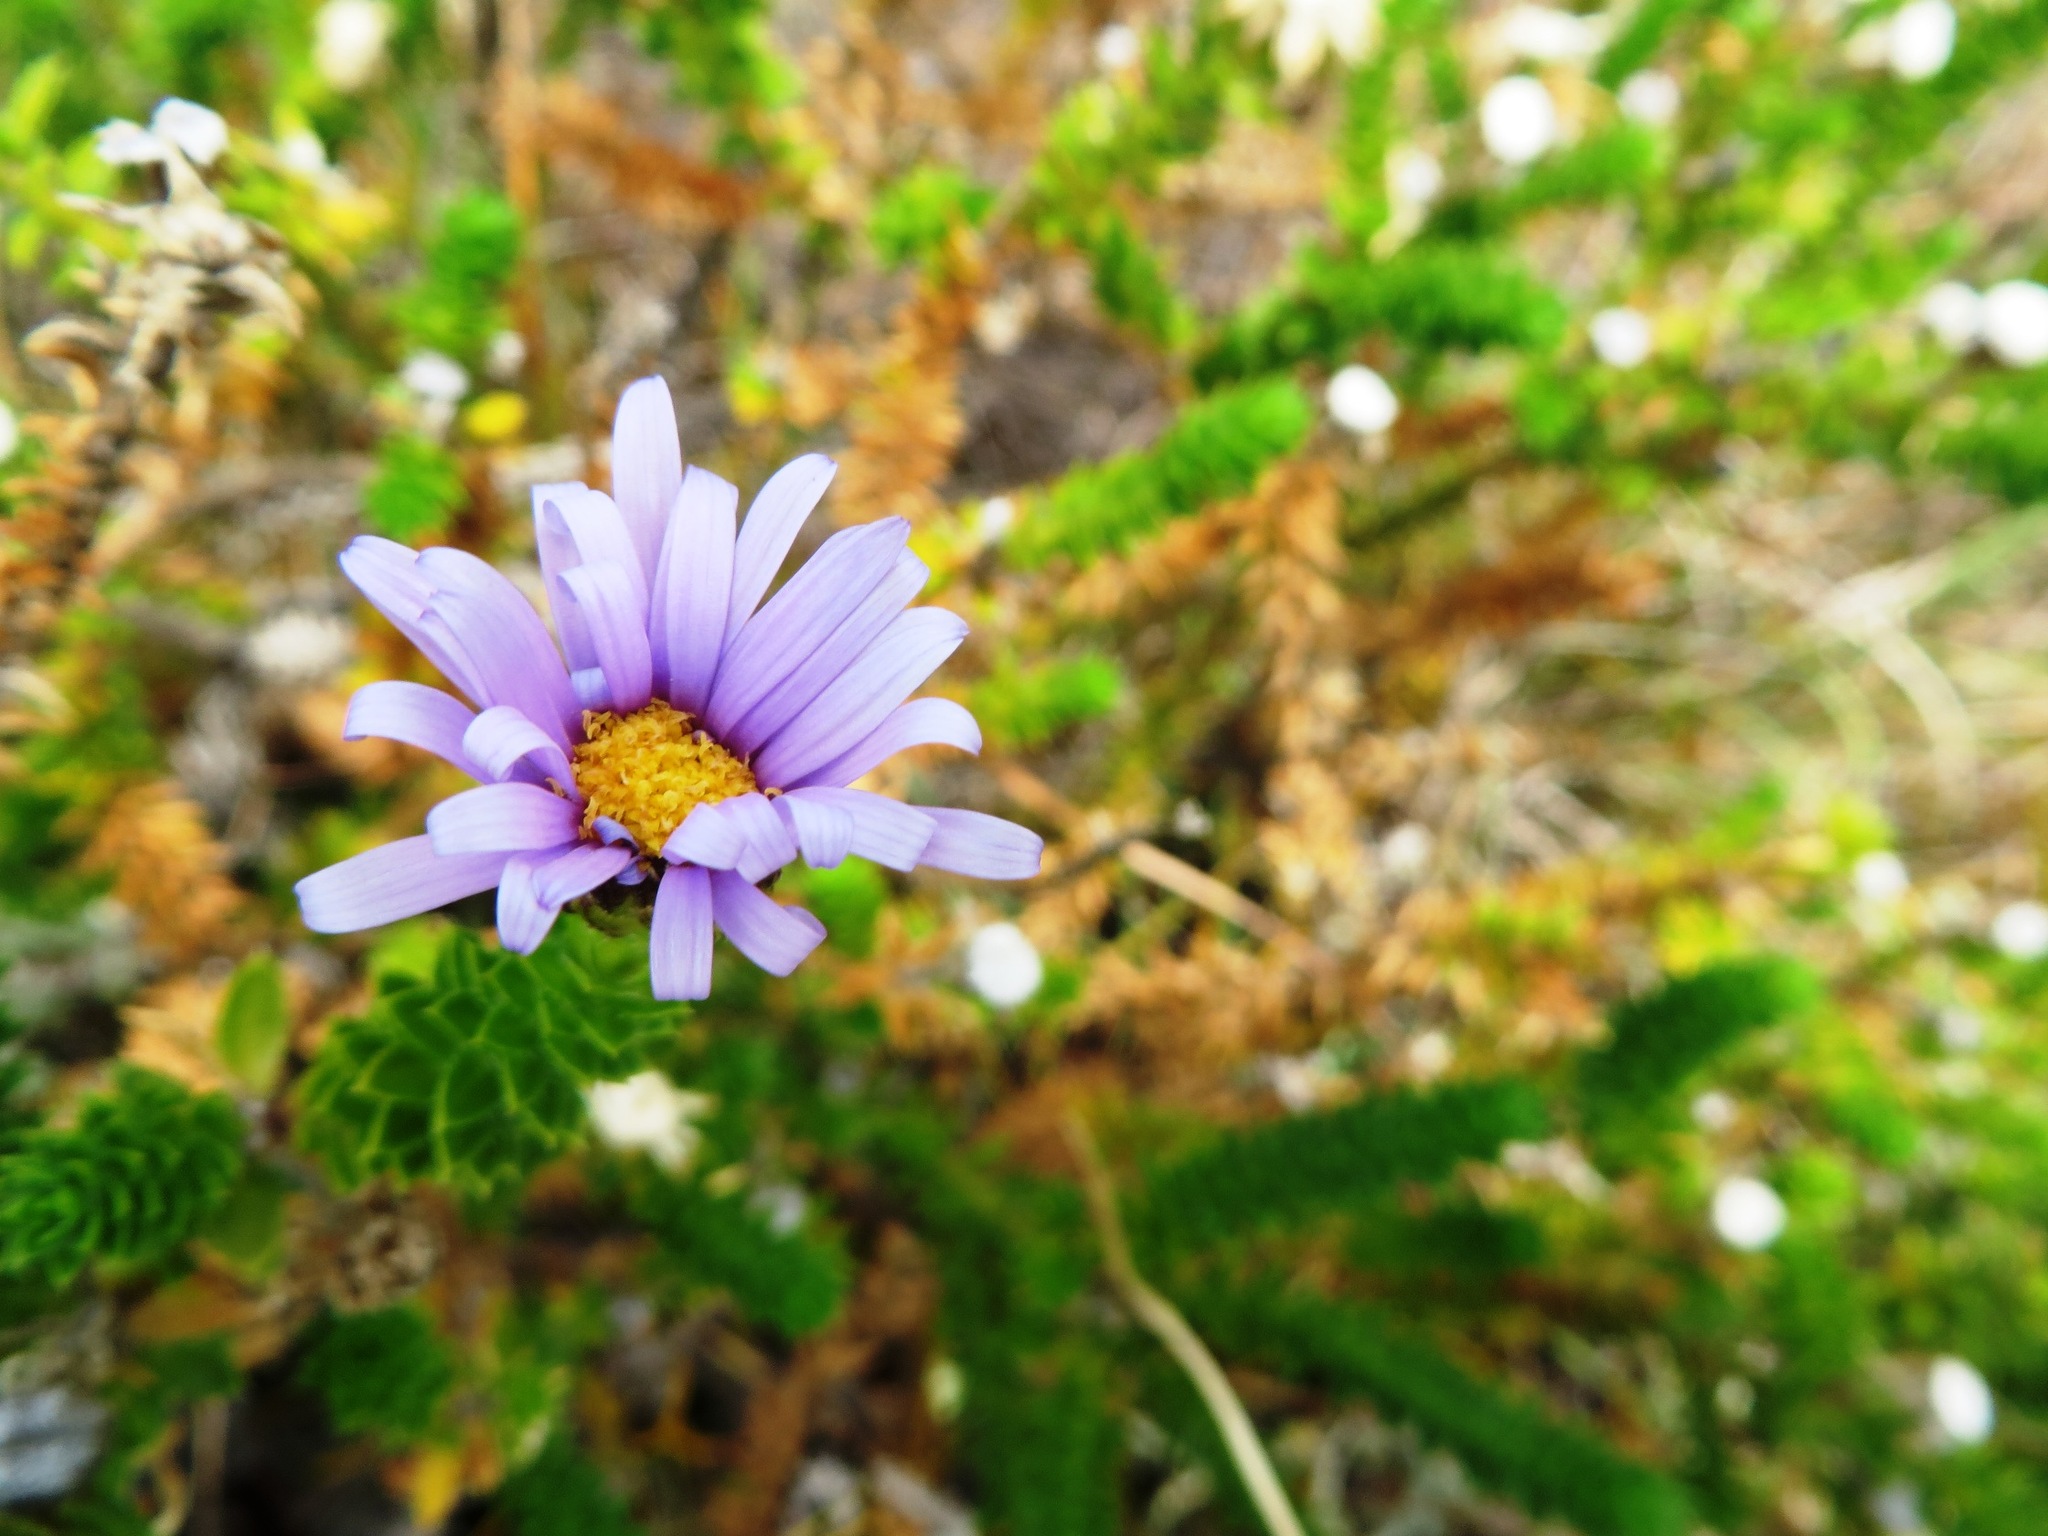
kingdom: Plantae
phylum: Tracheophyta
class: Magnoliopsida
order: Asterales
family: Asteraceae
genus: Felicia
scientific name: Felicia echinata
